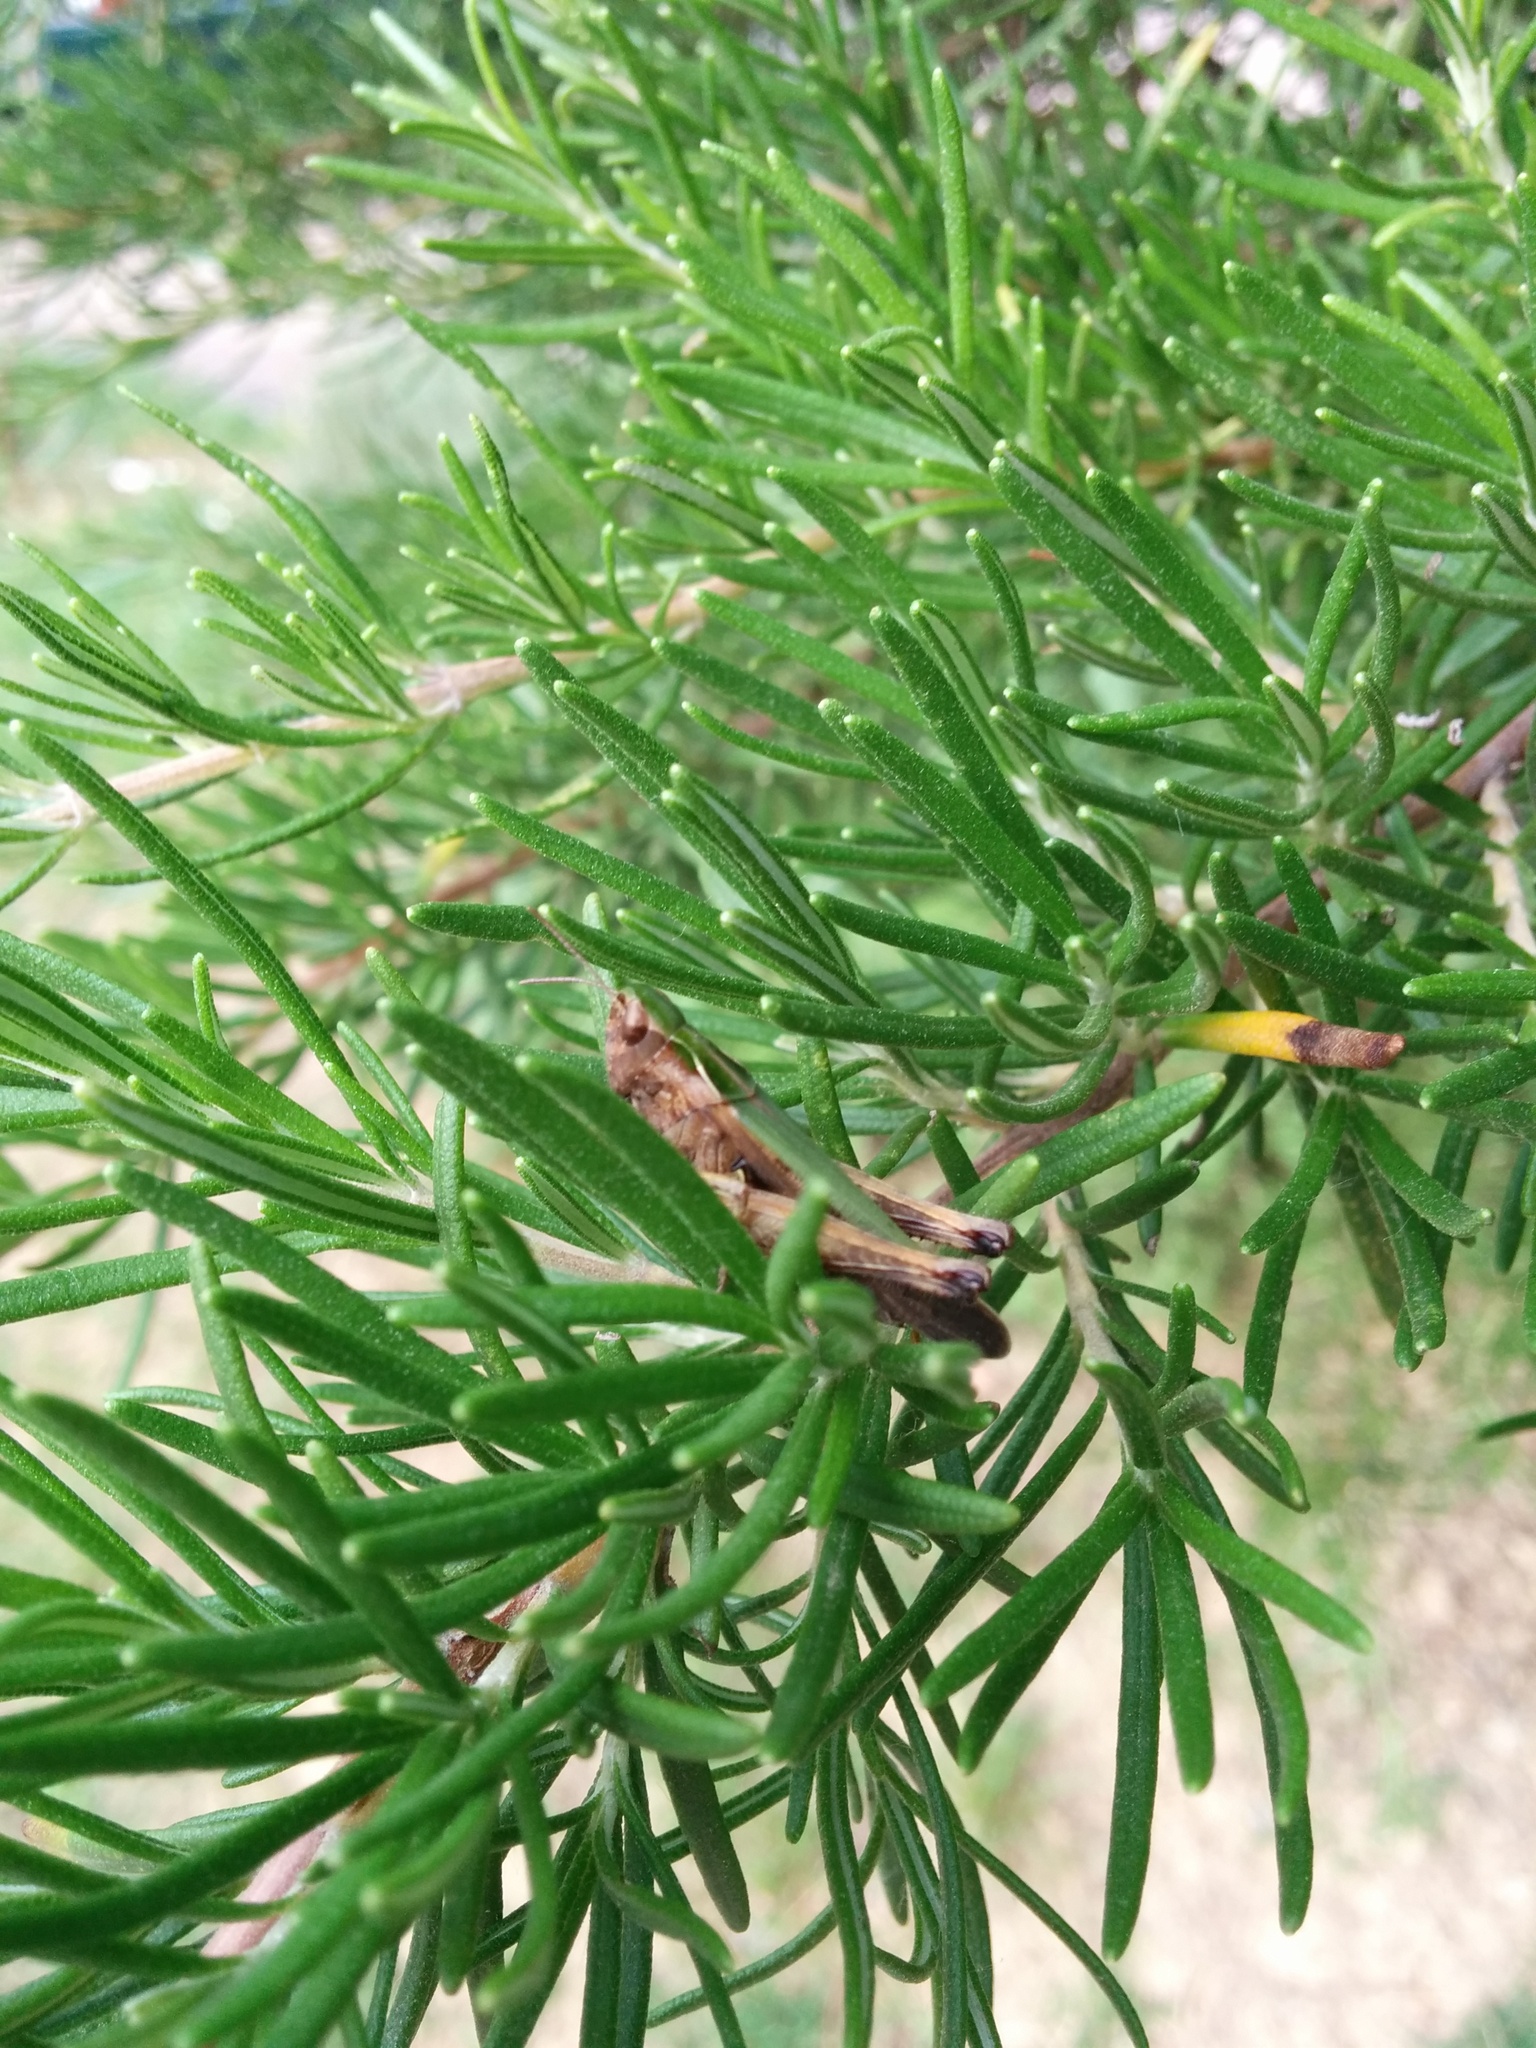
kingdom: Animalia
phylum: Arthropoda
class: Insecta
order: Orthoptera
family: Acrididae
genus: Omocestus
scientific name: Omocestus rufipes
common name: Woodland grasshopper
